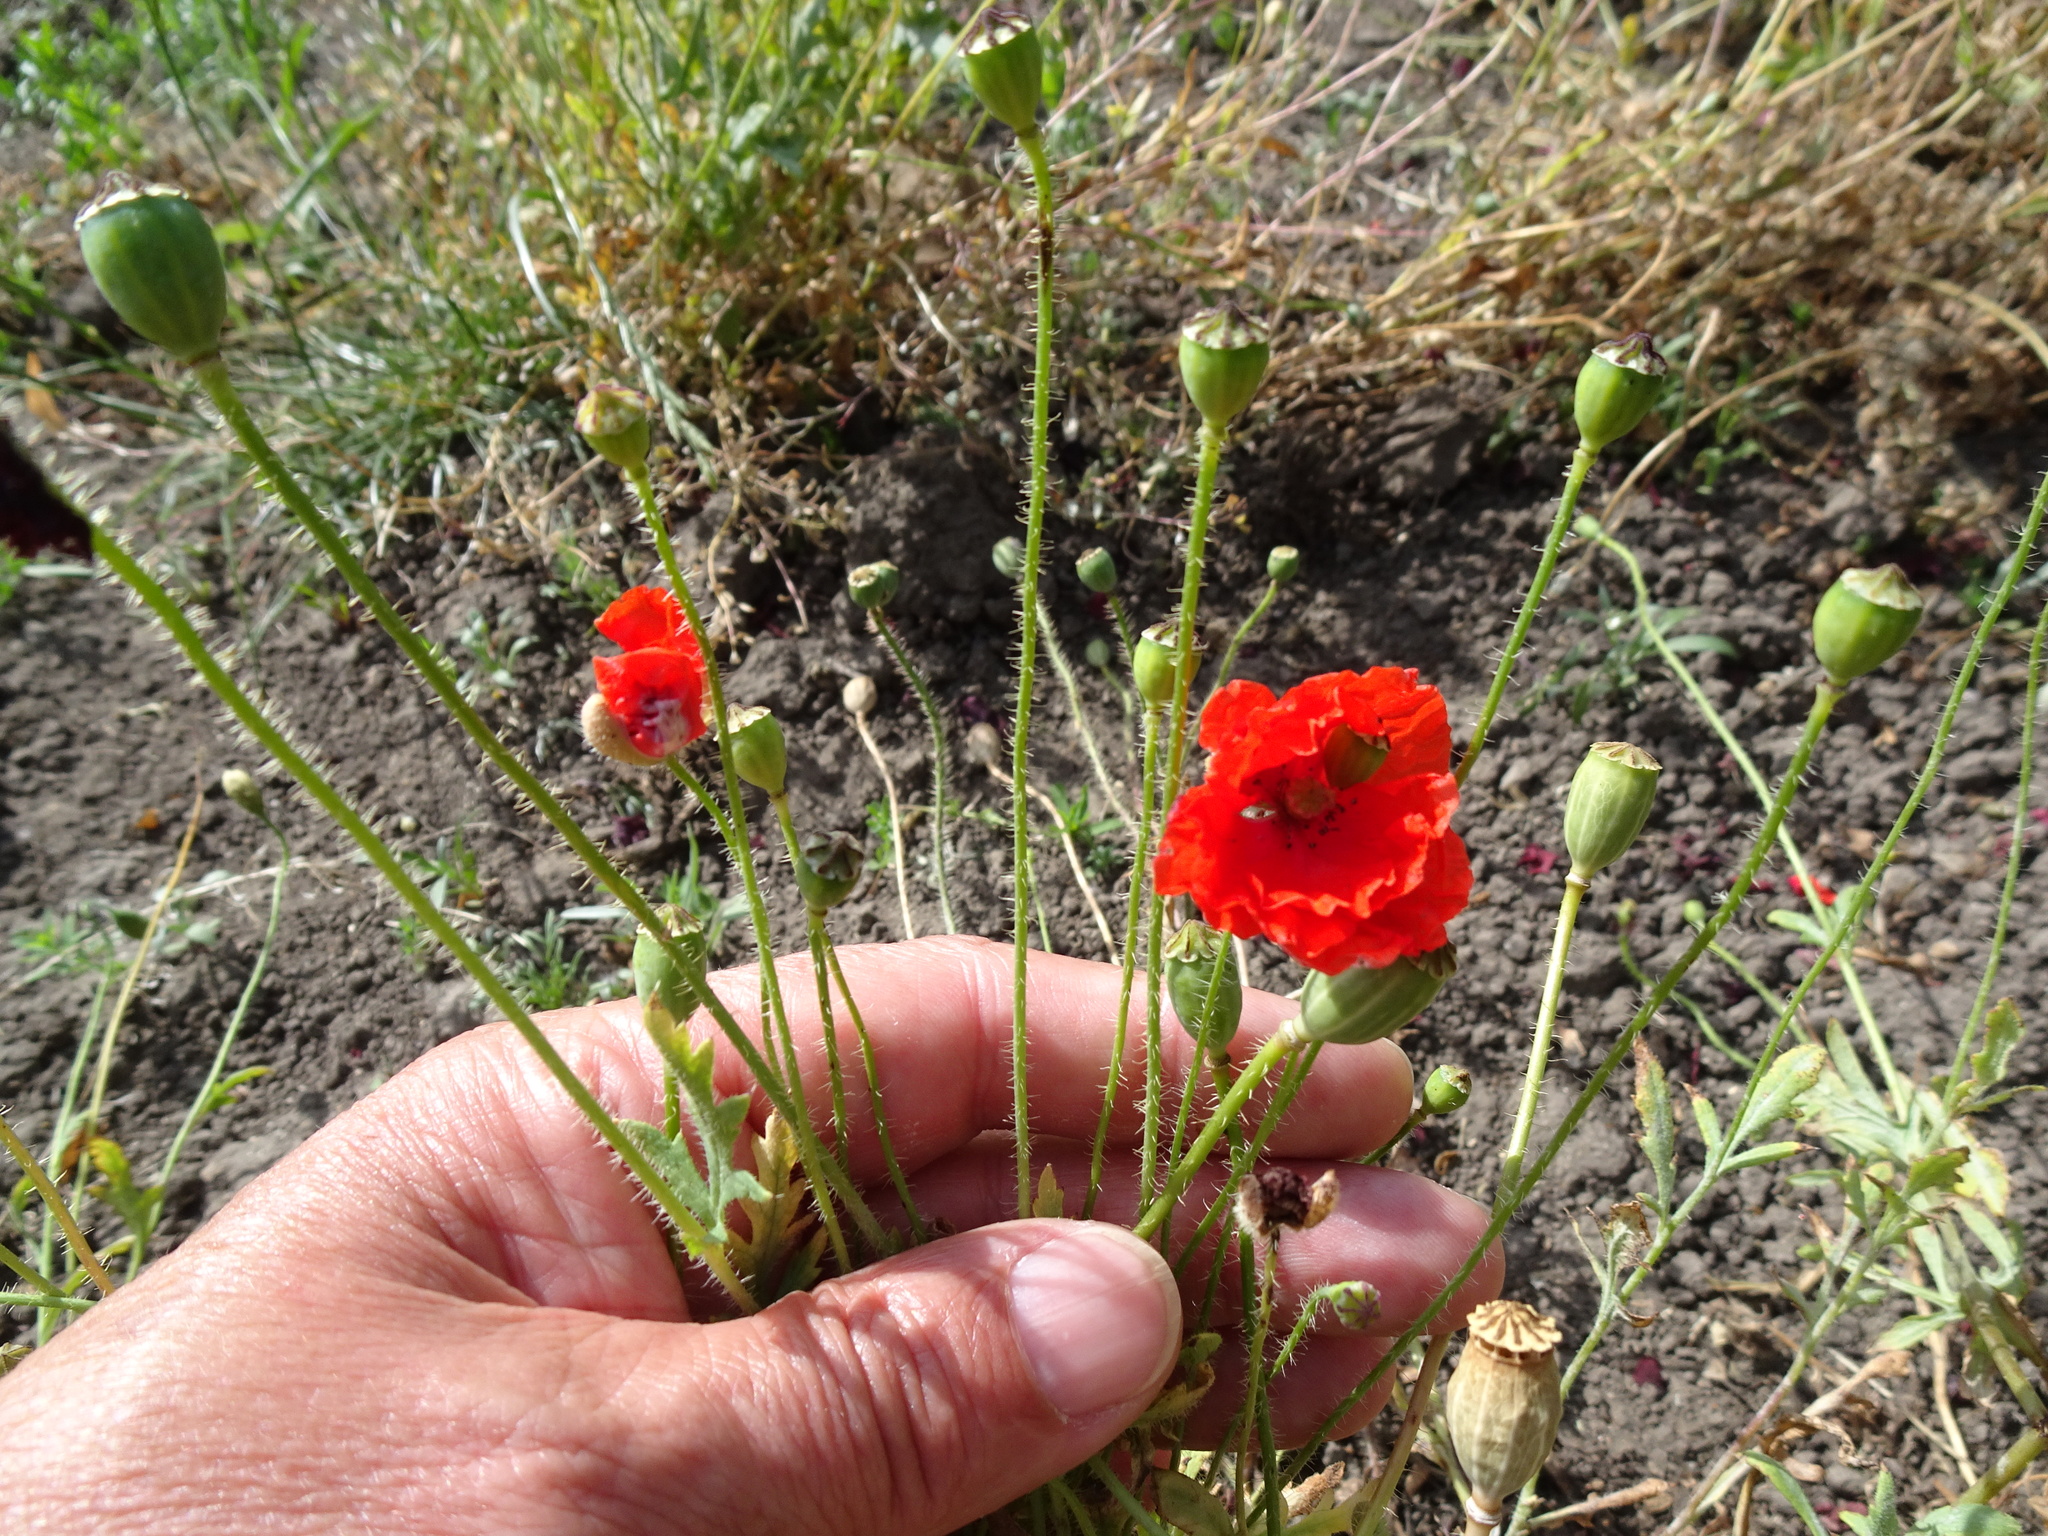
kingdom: Plantae
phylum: Tracheophyta
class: Magnoliopsida
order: Ranunculales
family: Papaveraceae
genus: Papaver
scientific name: Papaver rhoeas
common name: Corn poppy
